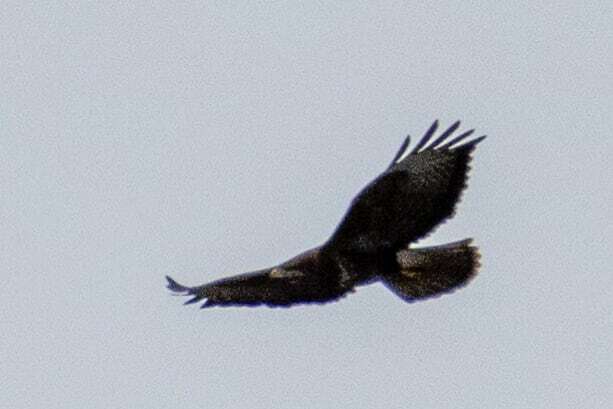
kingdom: Animalia
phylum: Chordata
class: Aves
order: Accipitriformes
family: Accipitridae
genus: Buteo
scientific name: Buteo buteo
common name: Common buzzard
